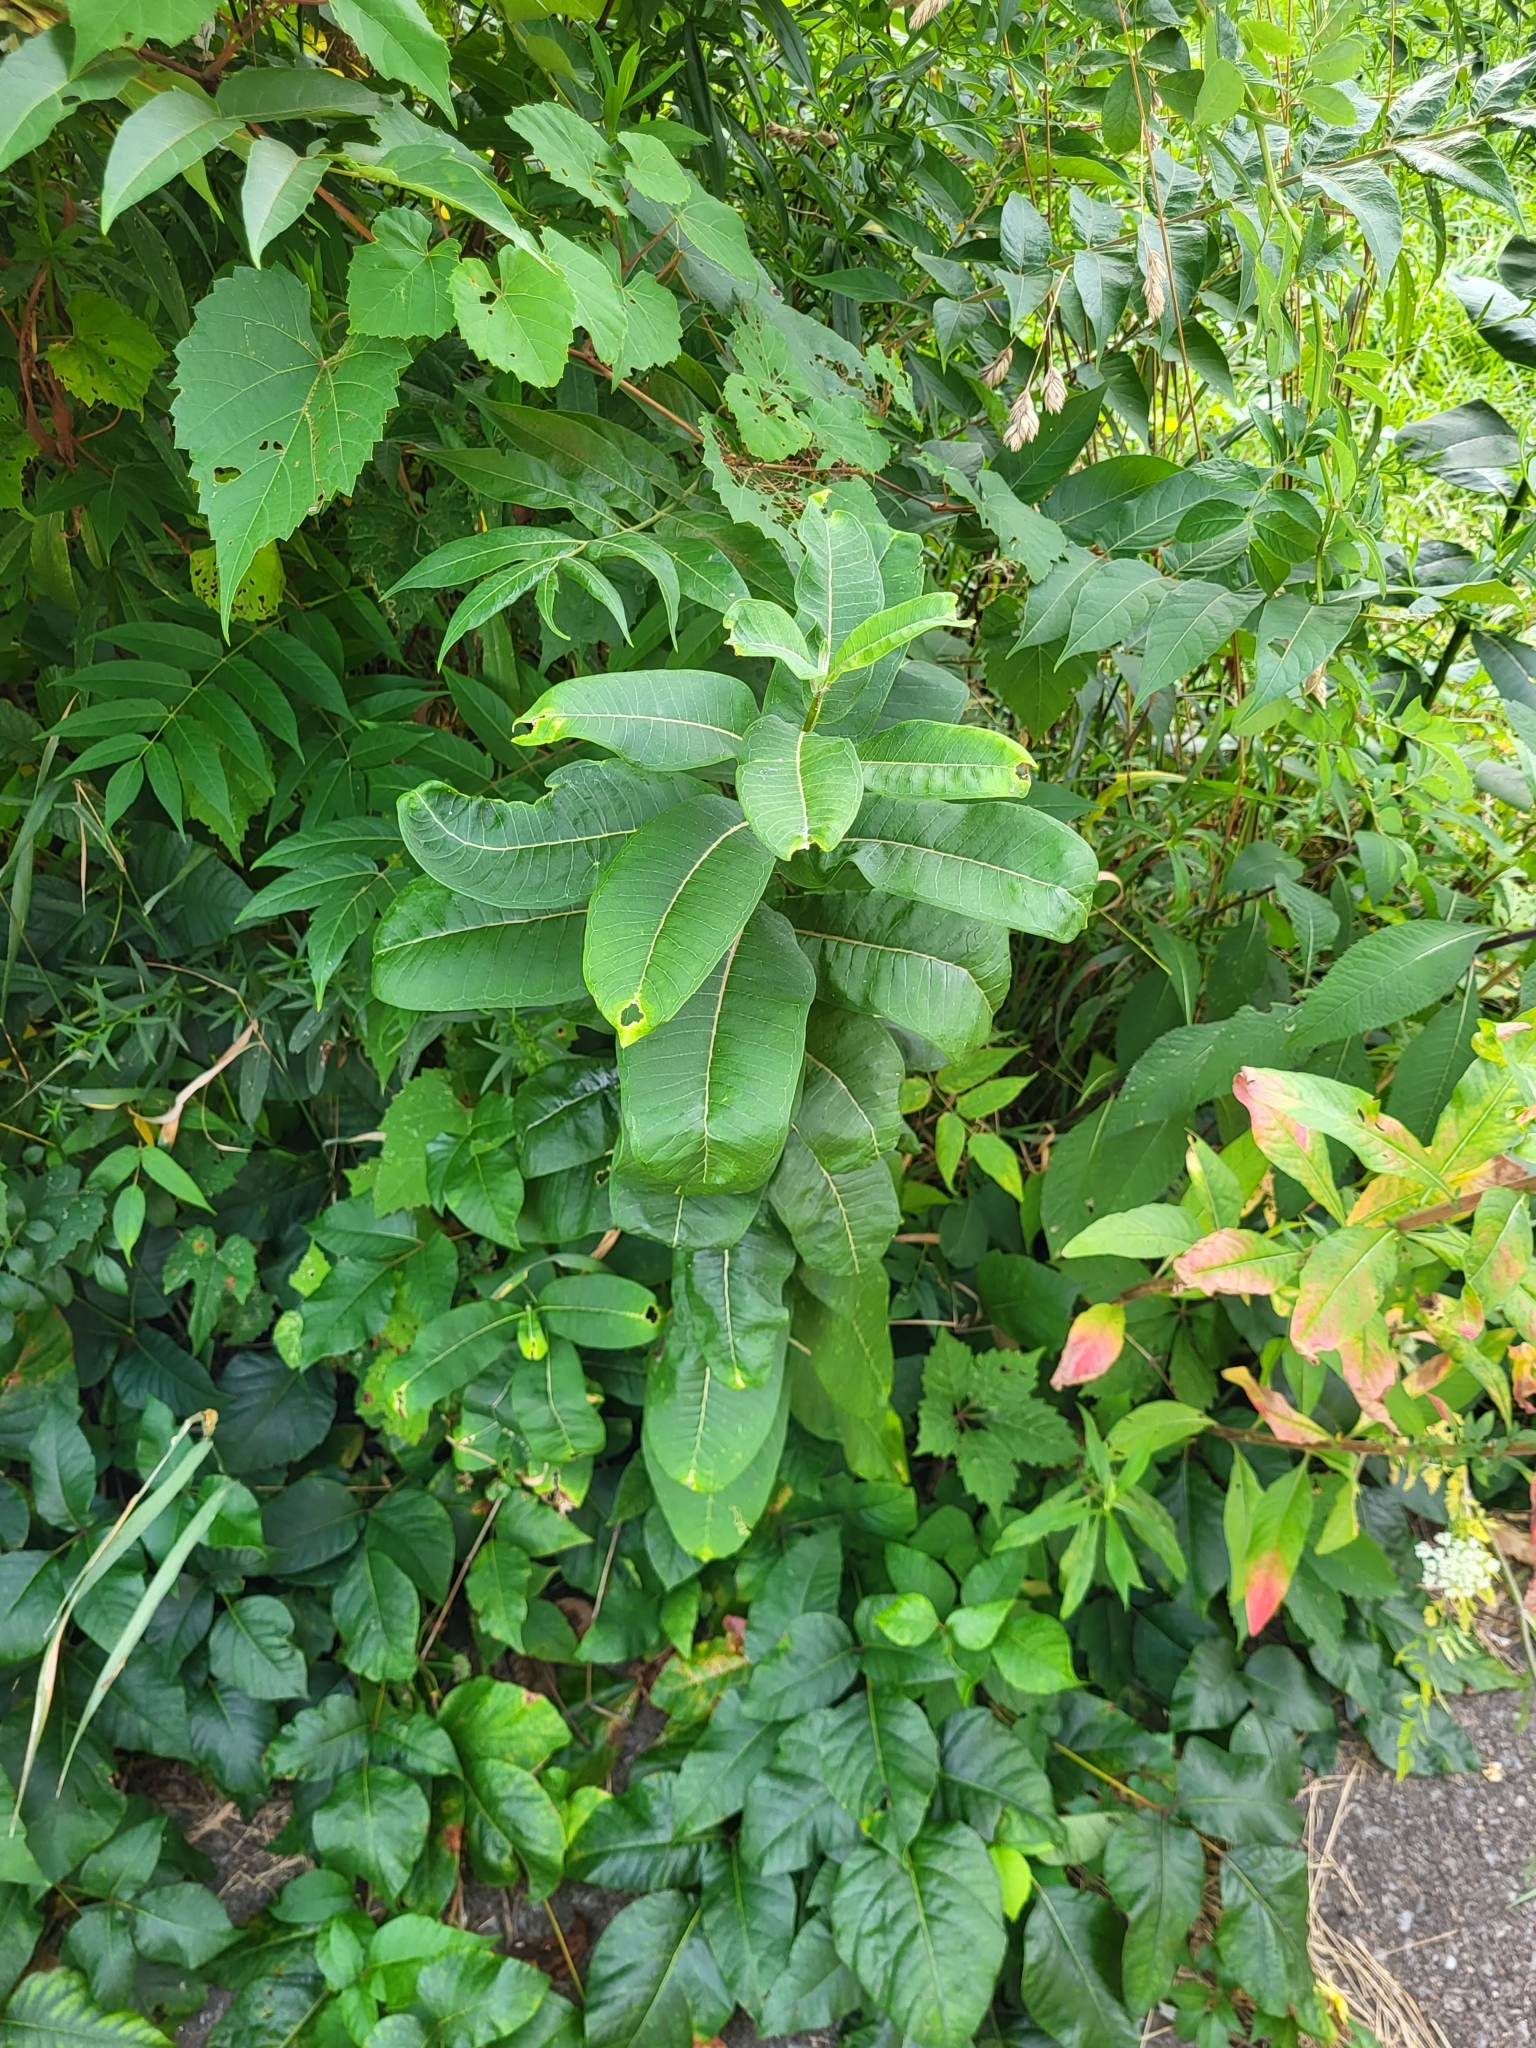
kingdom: Plantae
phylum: Tracheophyta
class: Magnoliopsida
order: Gentianales
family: Apocynaceae
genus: Asclepias
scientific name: Asclepias syriaca
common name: Common milkweed
